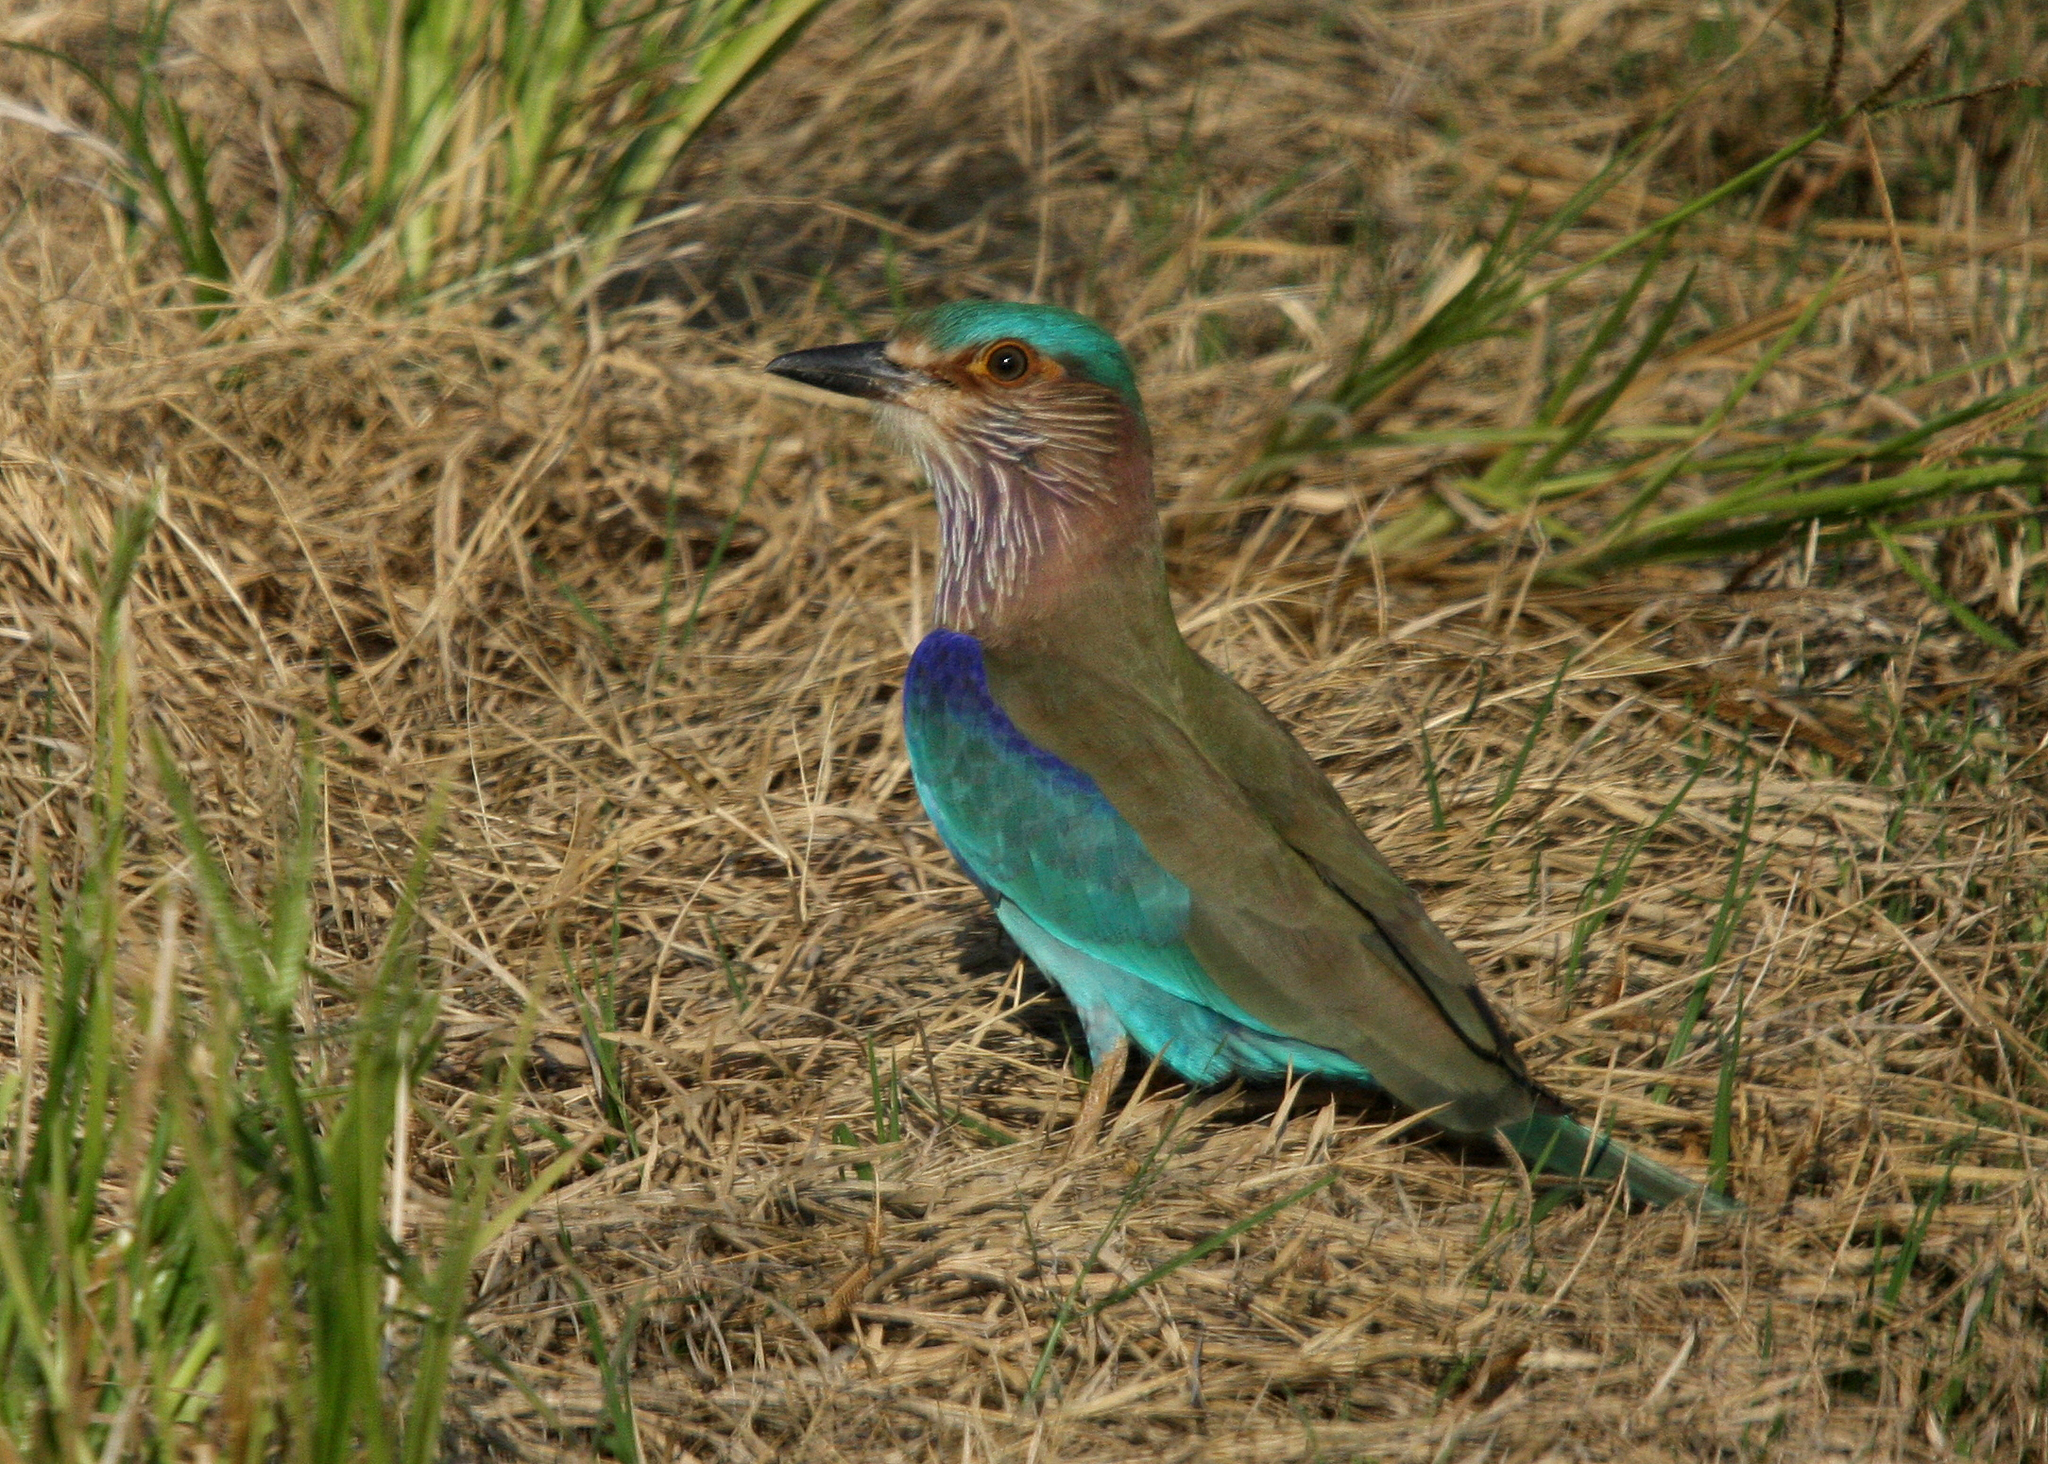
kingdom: Animalia
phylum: Chordata
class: Aves
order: Coraciiformes
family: Coraciidae
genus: Coracias
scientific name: Coracias benghalensis
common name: Indian roller
